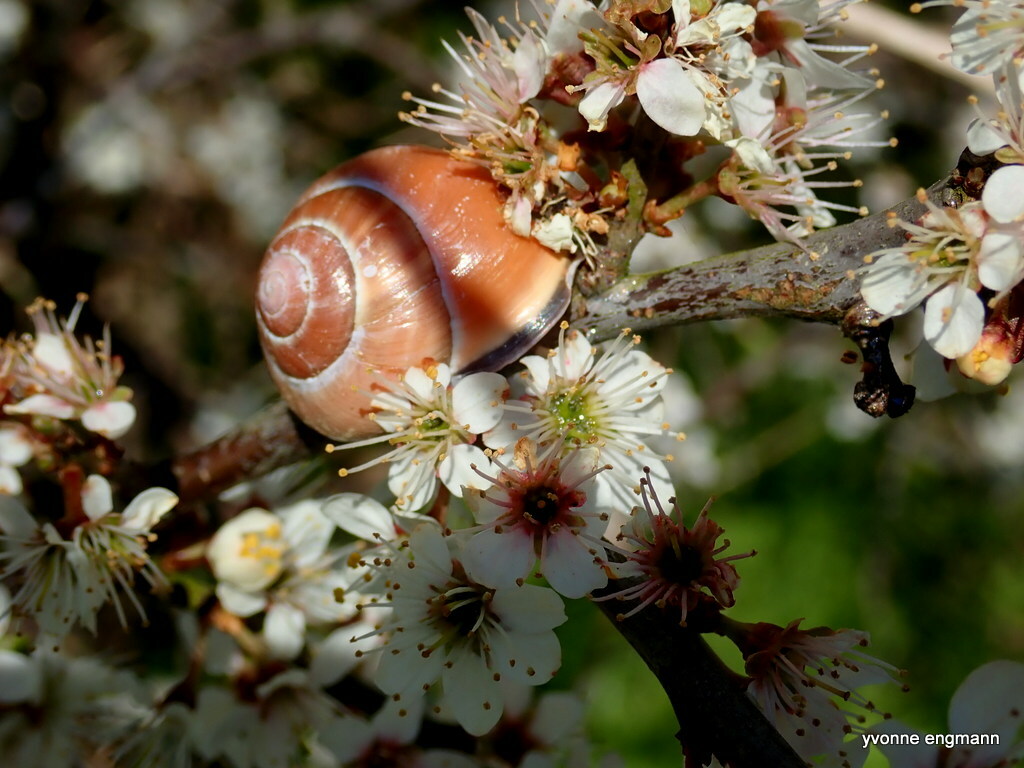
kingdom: Animalia
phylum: Mollusca
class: Gastropoda
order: Stylommatophora
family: Helicidae
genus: Cepaea
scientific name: Cepaea nemoralis
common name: Grovesnail
